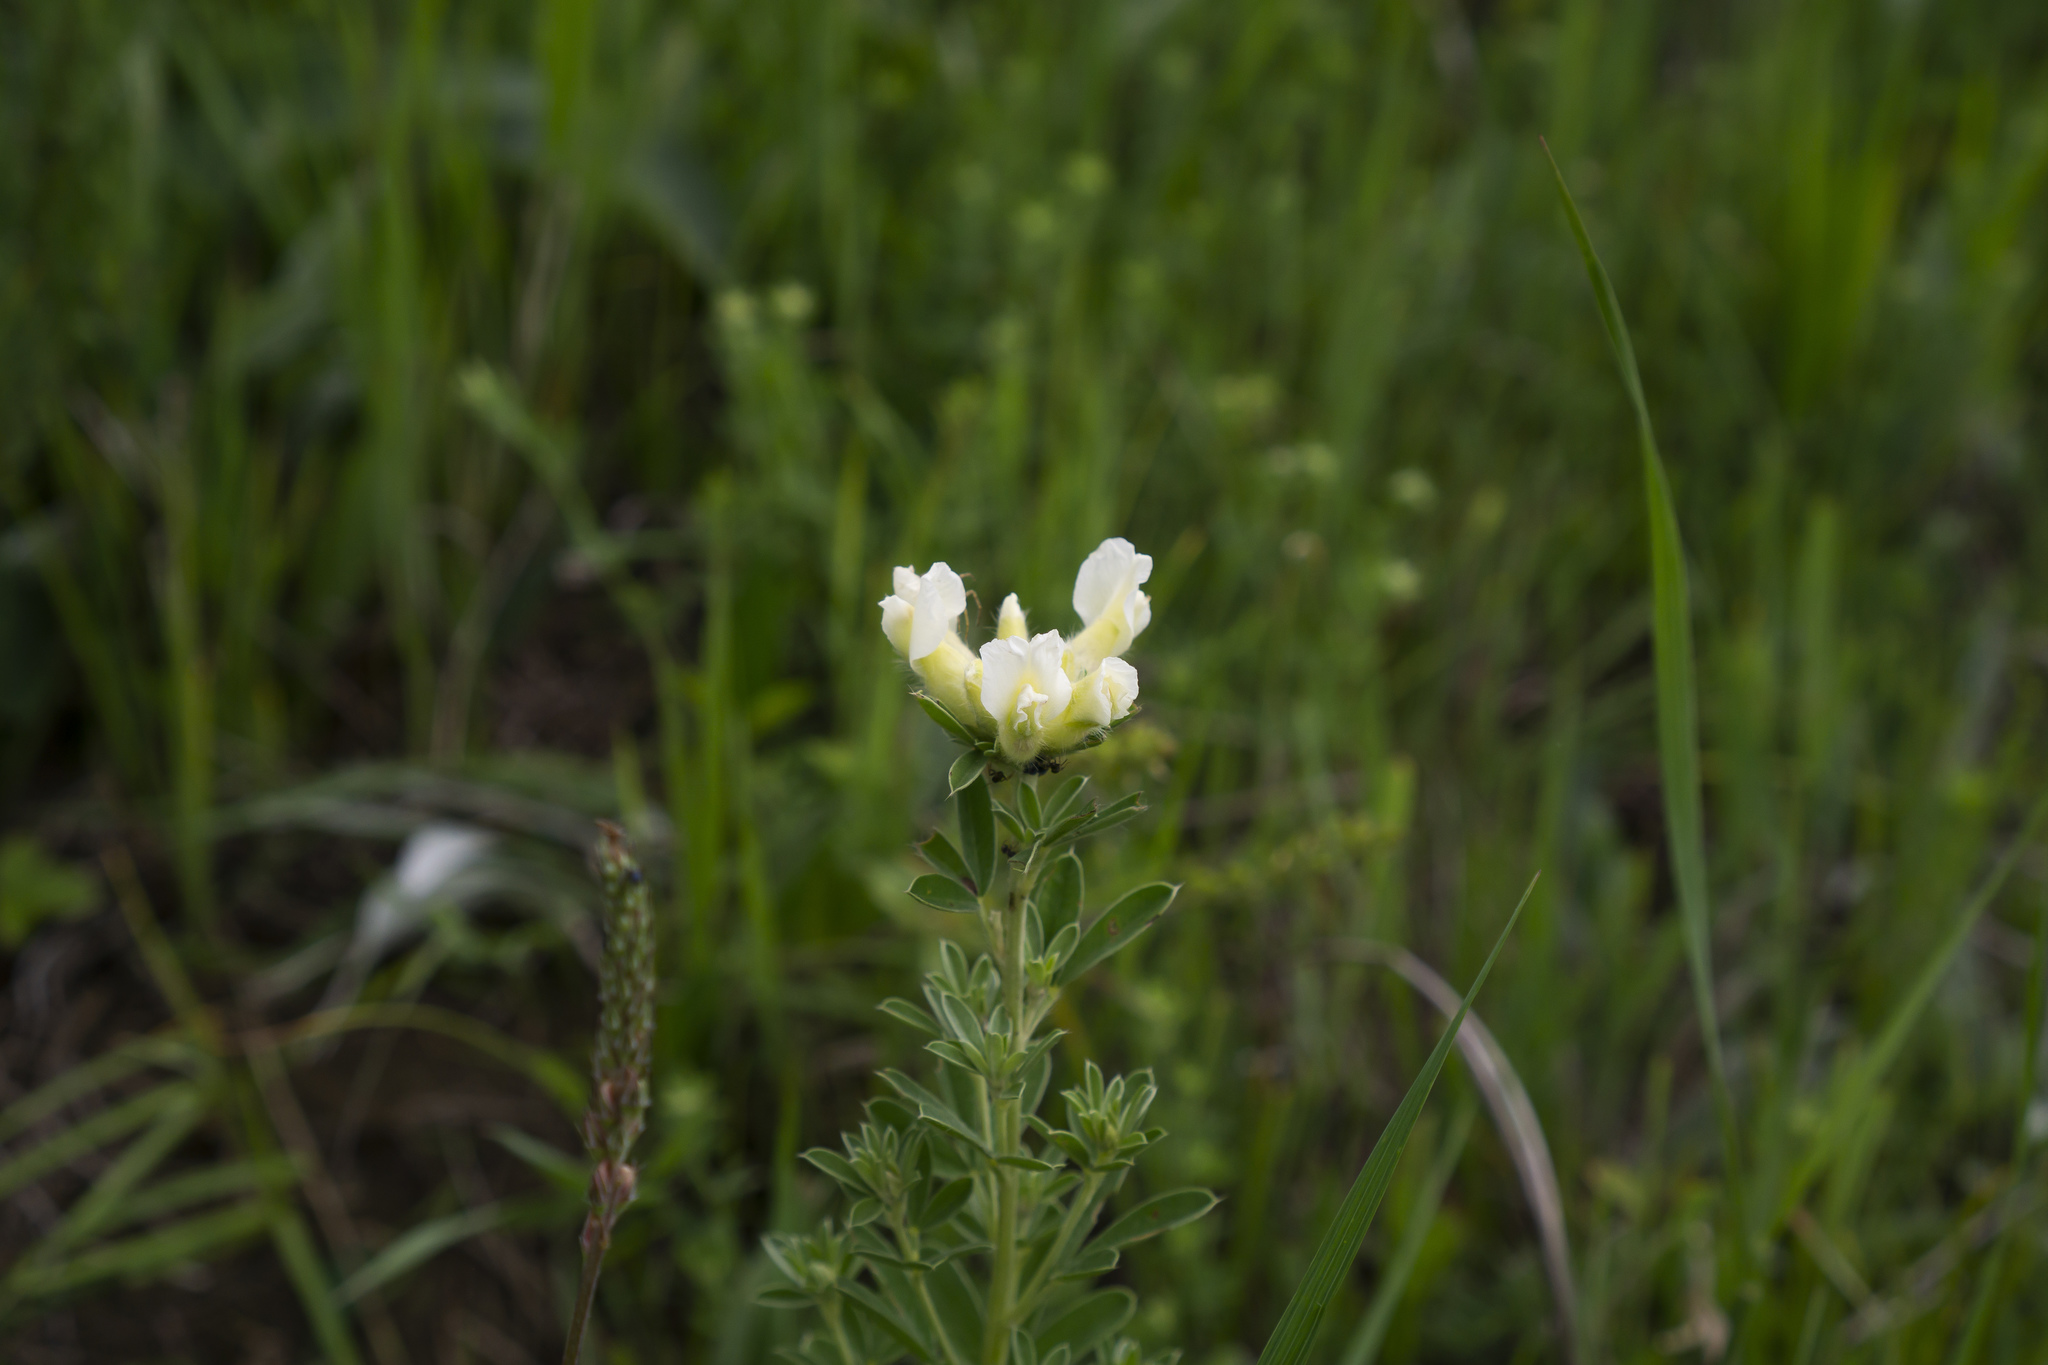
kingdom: Plantae
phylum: Tracheophyta
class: Magnoliopsida
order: Fabales
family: Fabaceae
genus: Chamaecytisus
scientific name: Chamaecytisus albus
